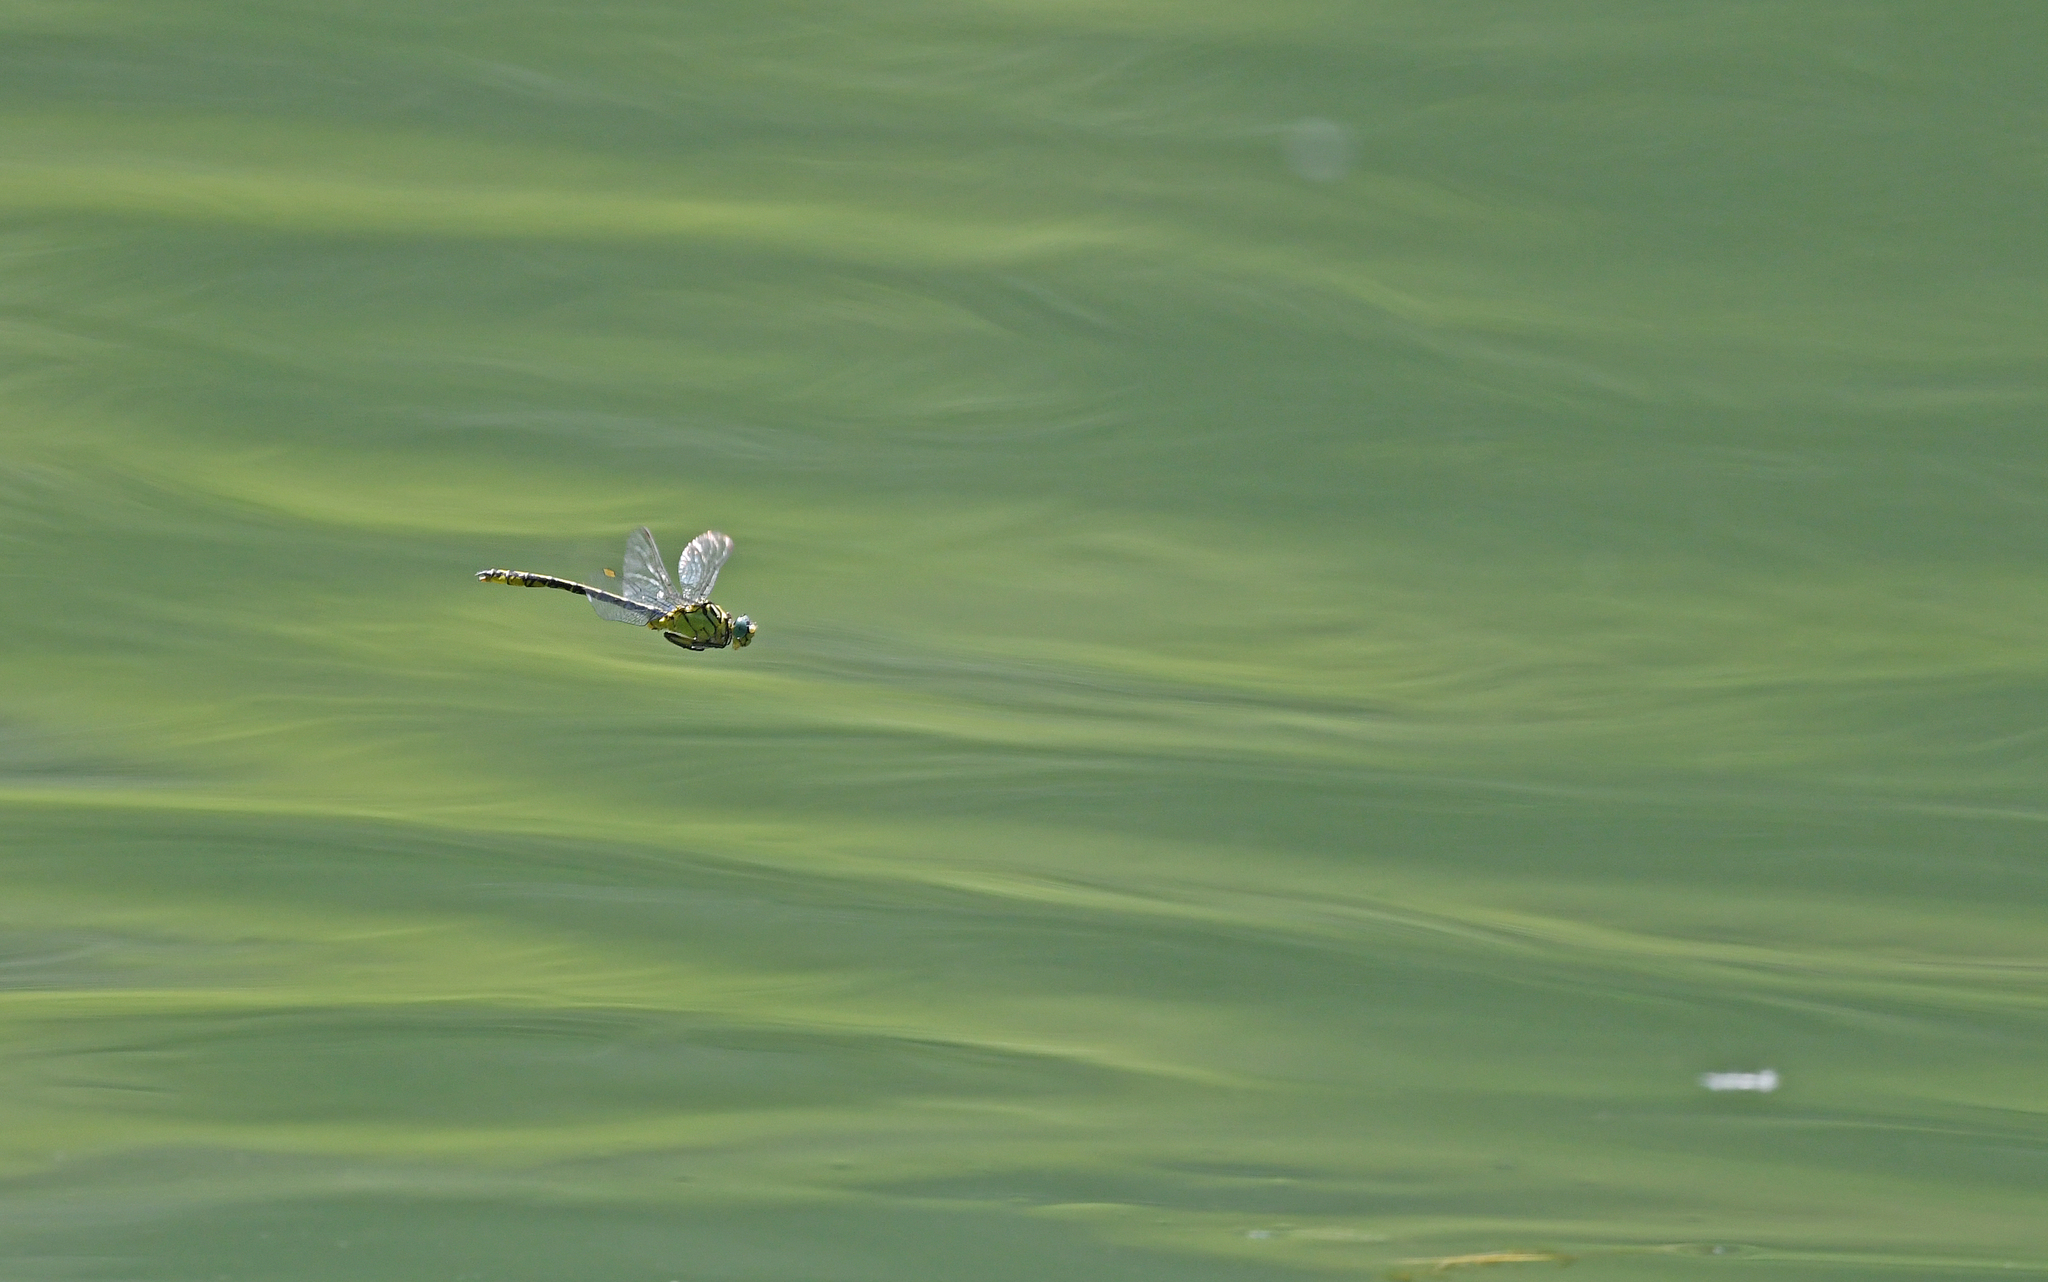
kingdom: Animalia
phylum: Arthropoda
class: Insecta
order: Odonata
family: Gomphidae
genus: Stylurus
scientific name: Stylurus flavipes
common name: River clubtail
